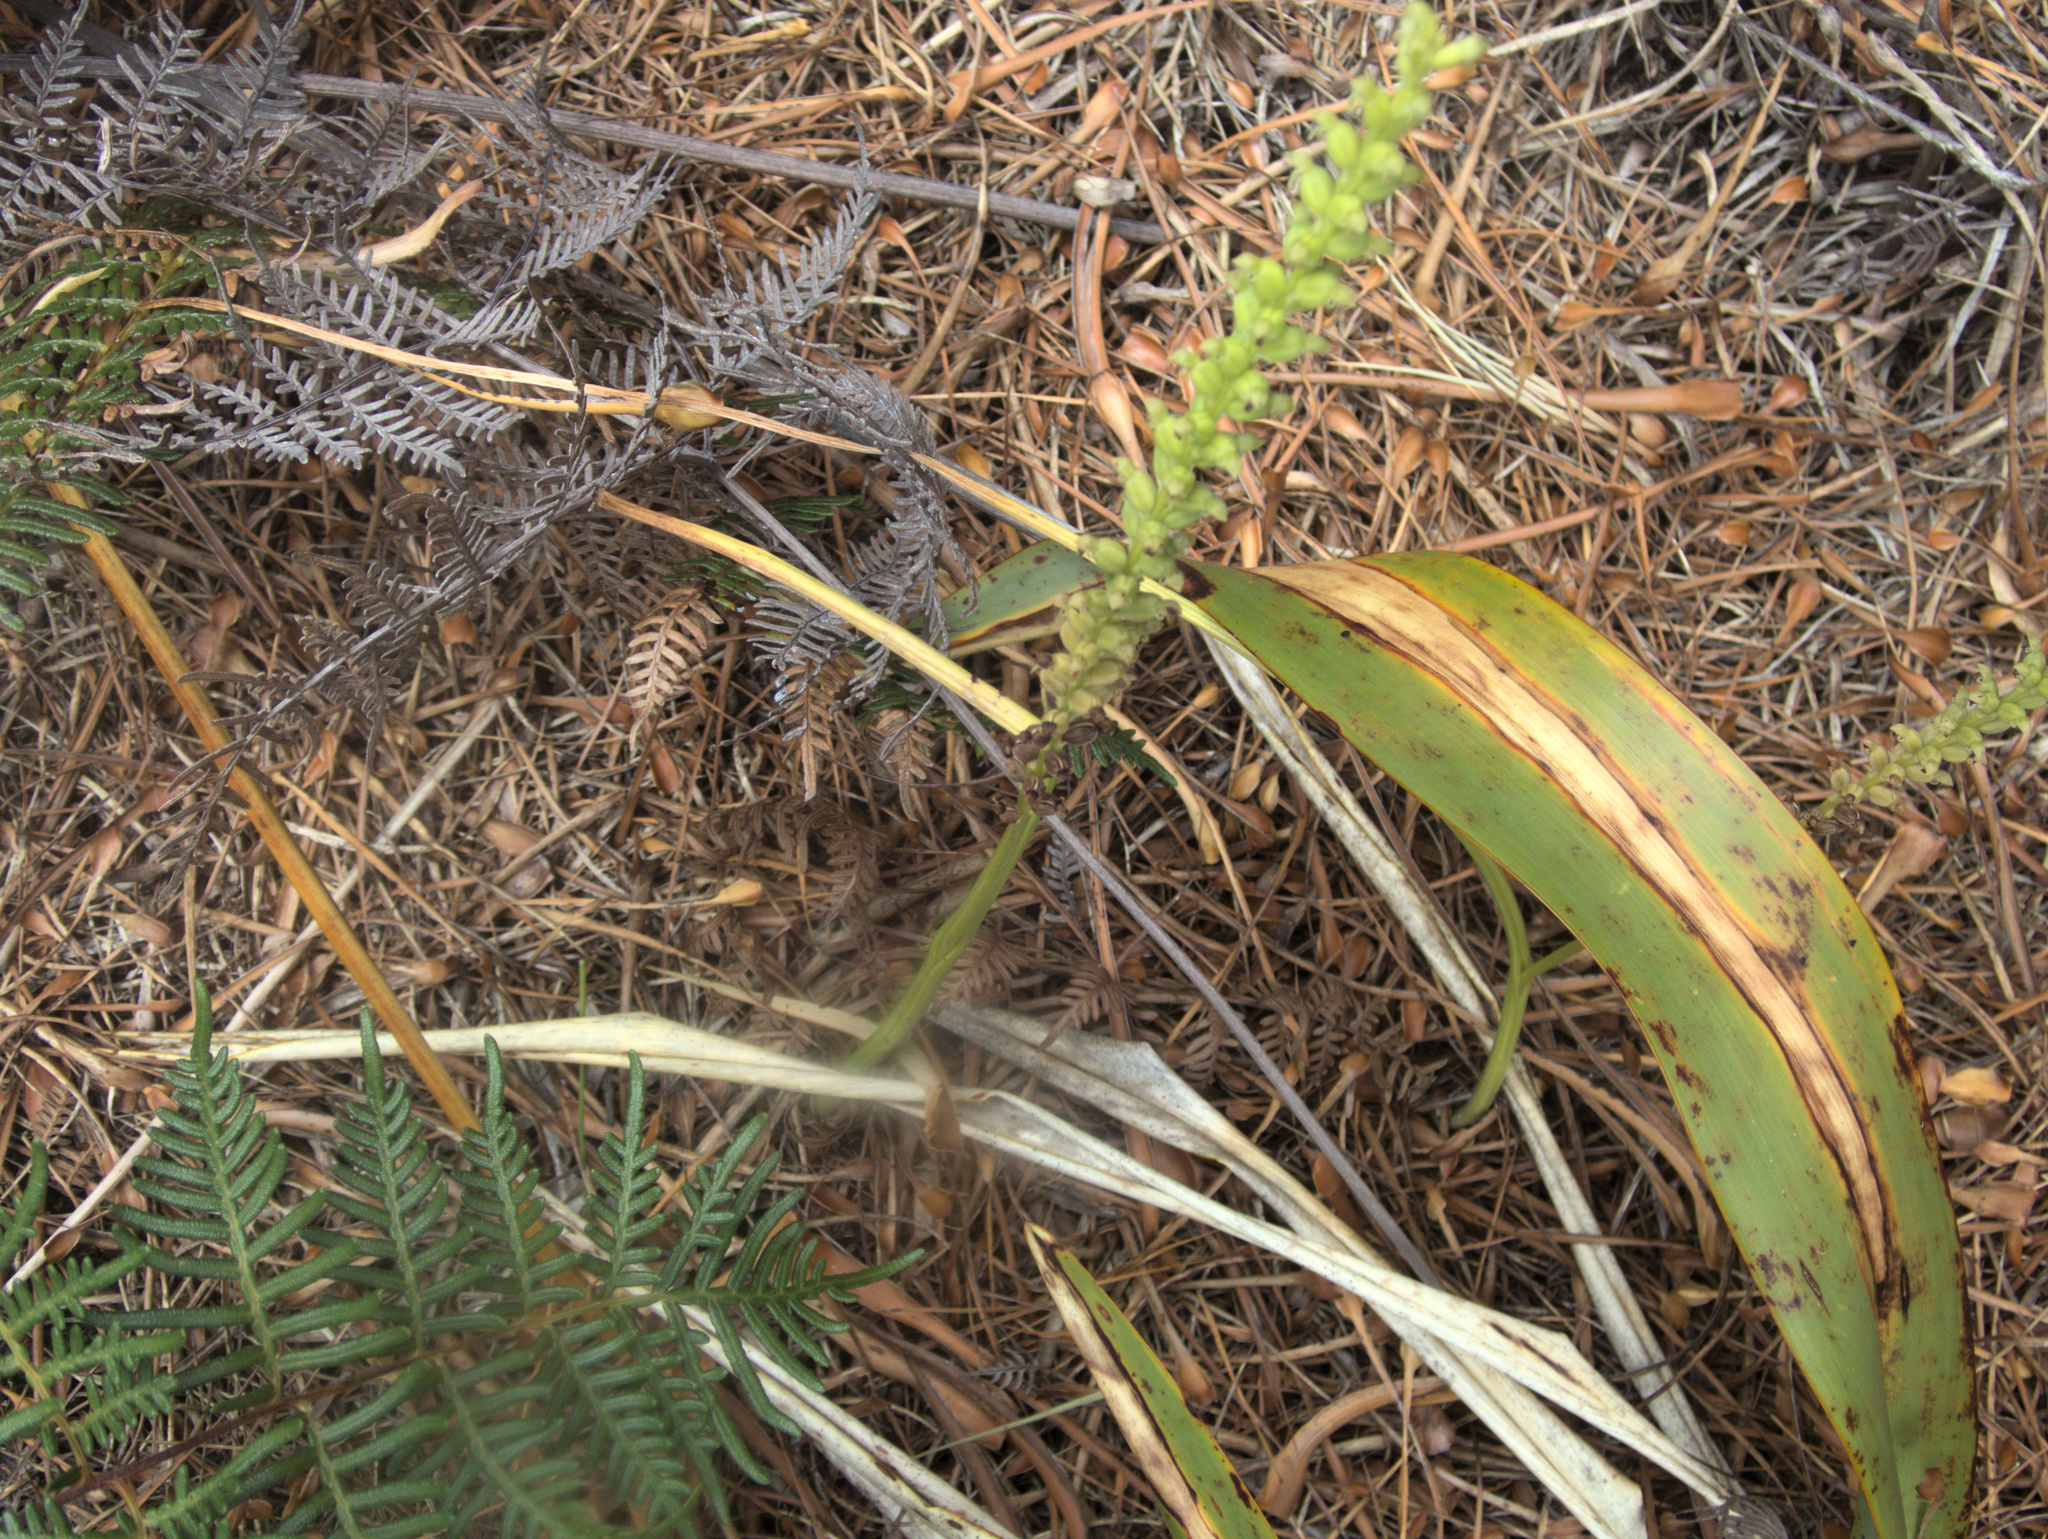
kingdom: Plantae
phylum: Tracheophyta
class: Liliopsida
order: Asparagales
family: Orchidaceae
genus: Microtis
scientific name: Microtis unifolia
